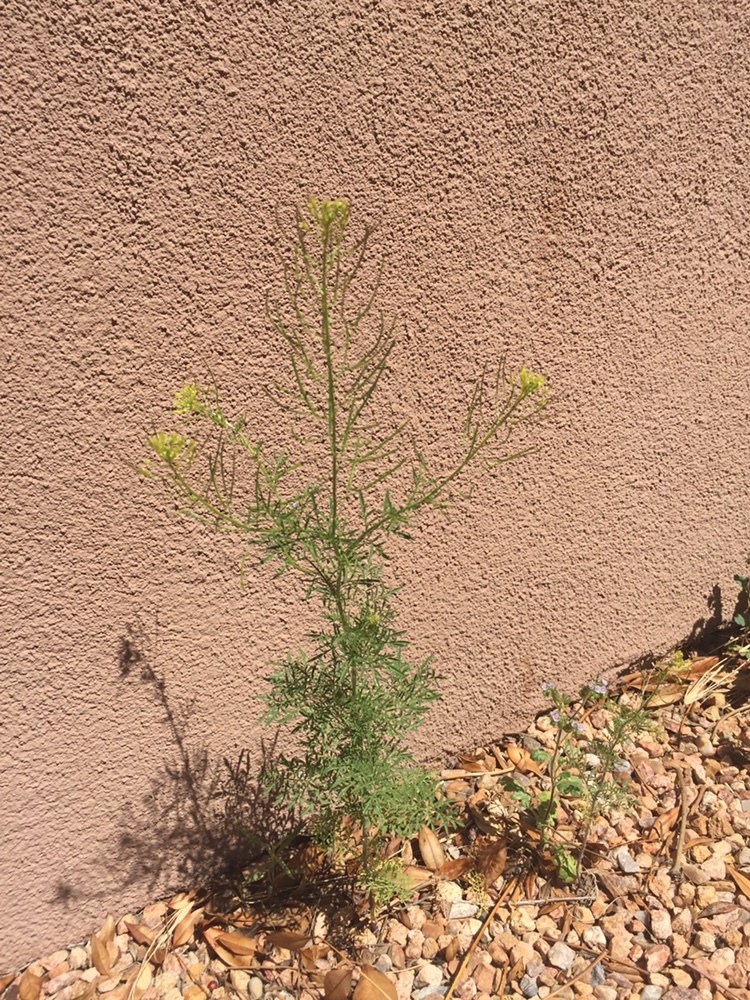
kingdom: Plantae
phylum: Tracheophyta
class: Magnoliopsida
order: Brassicales
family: Brassicaceae
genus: Descurainia
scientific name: Descurainia pinnata
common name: Western tansy mustard
